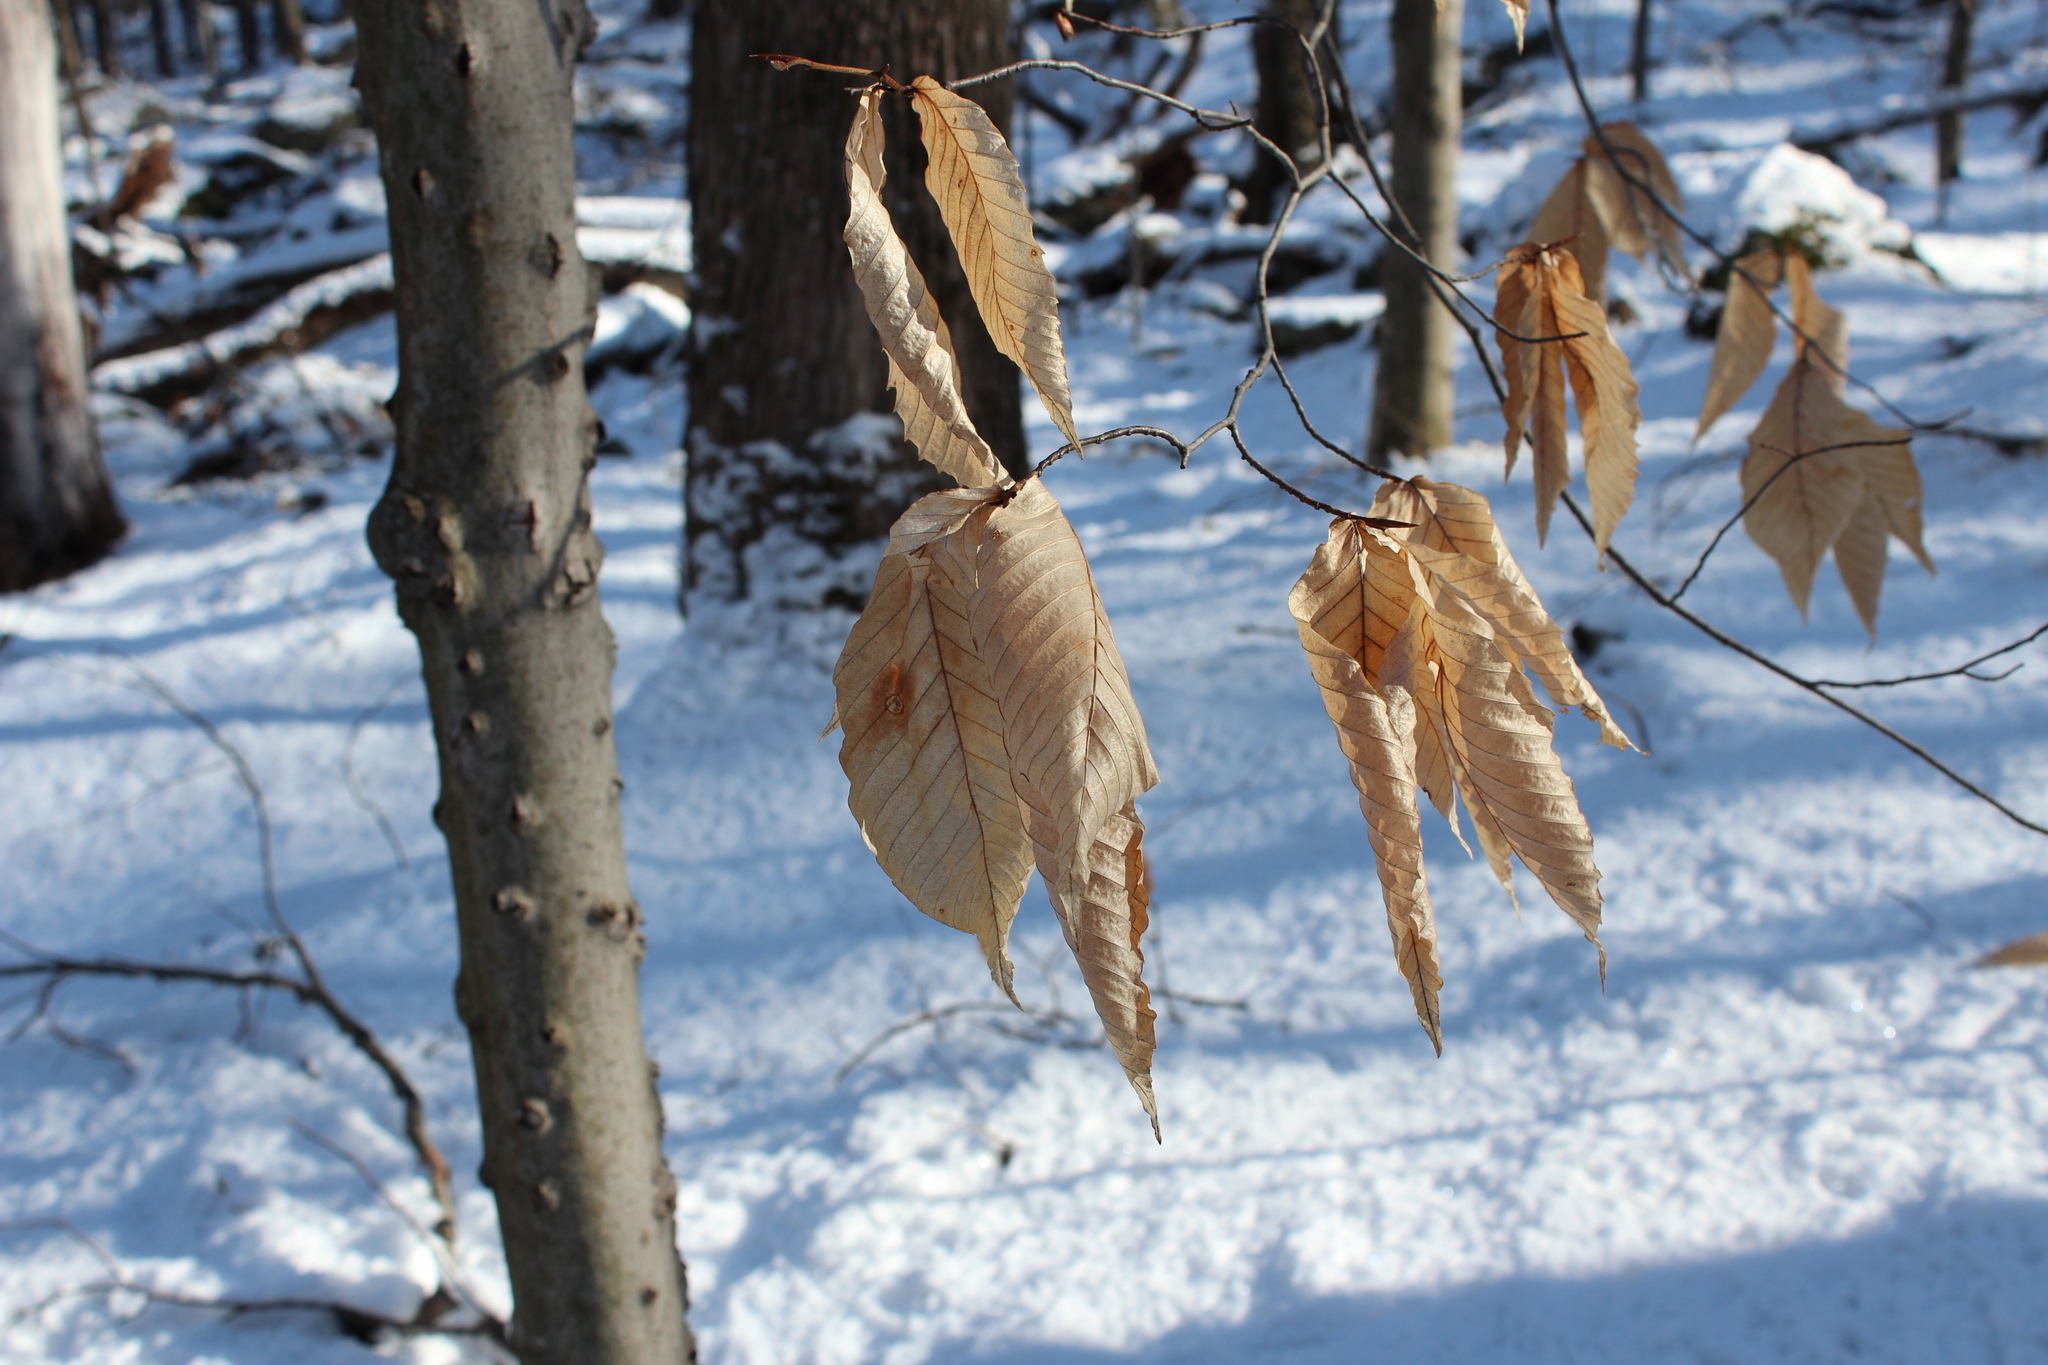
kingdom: Plantae
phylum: Tracheophyta
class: Magnoliopsida
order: Fagales
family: Fagaceae
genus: Fagus
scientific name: Fagus grandifolia
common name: American beech
